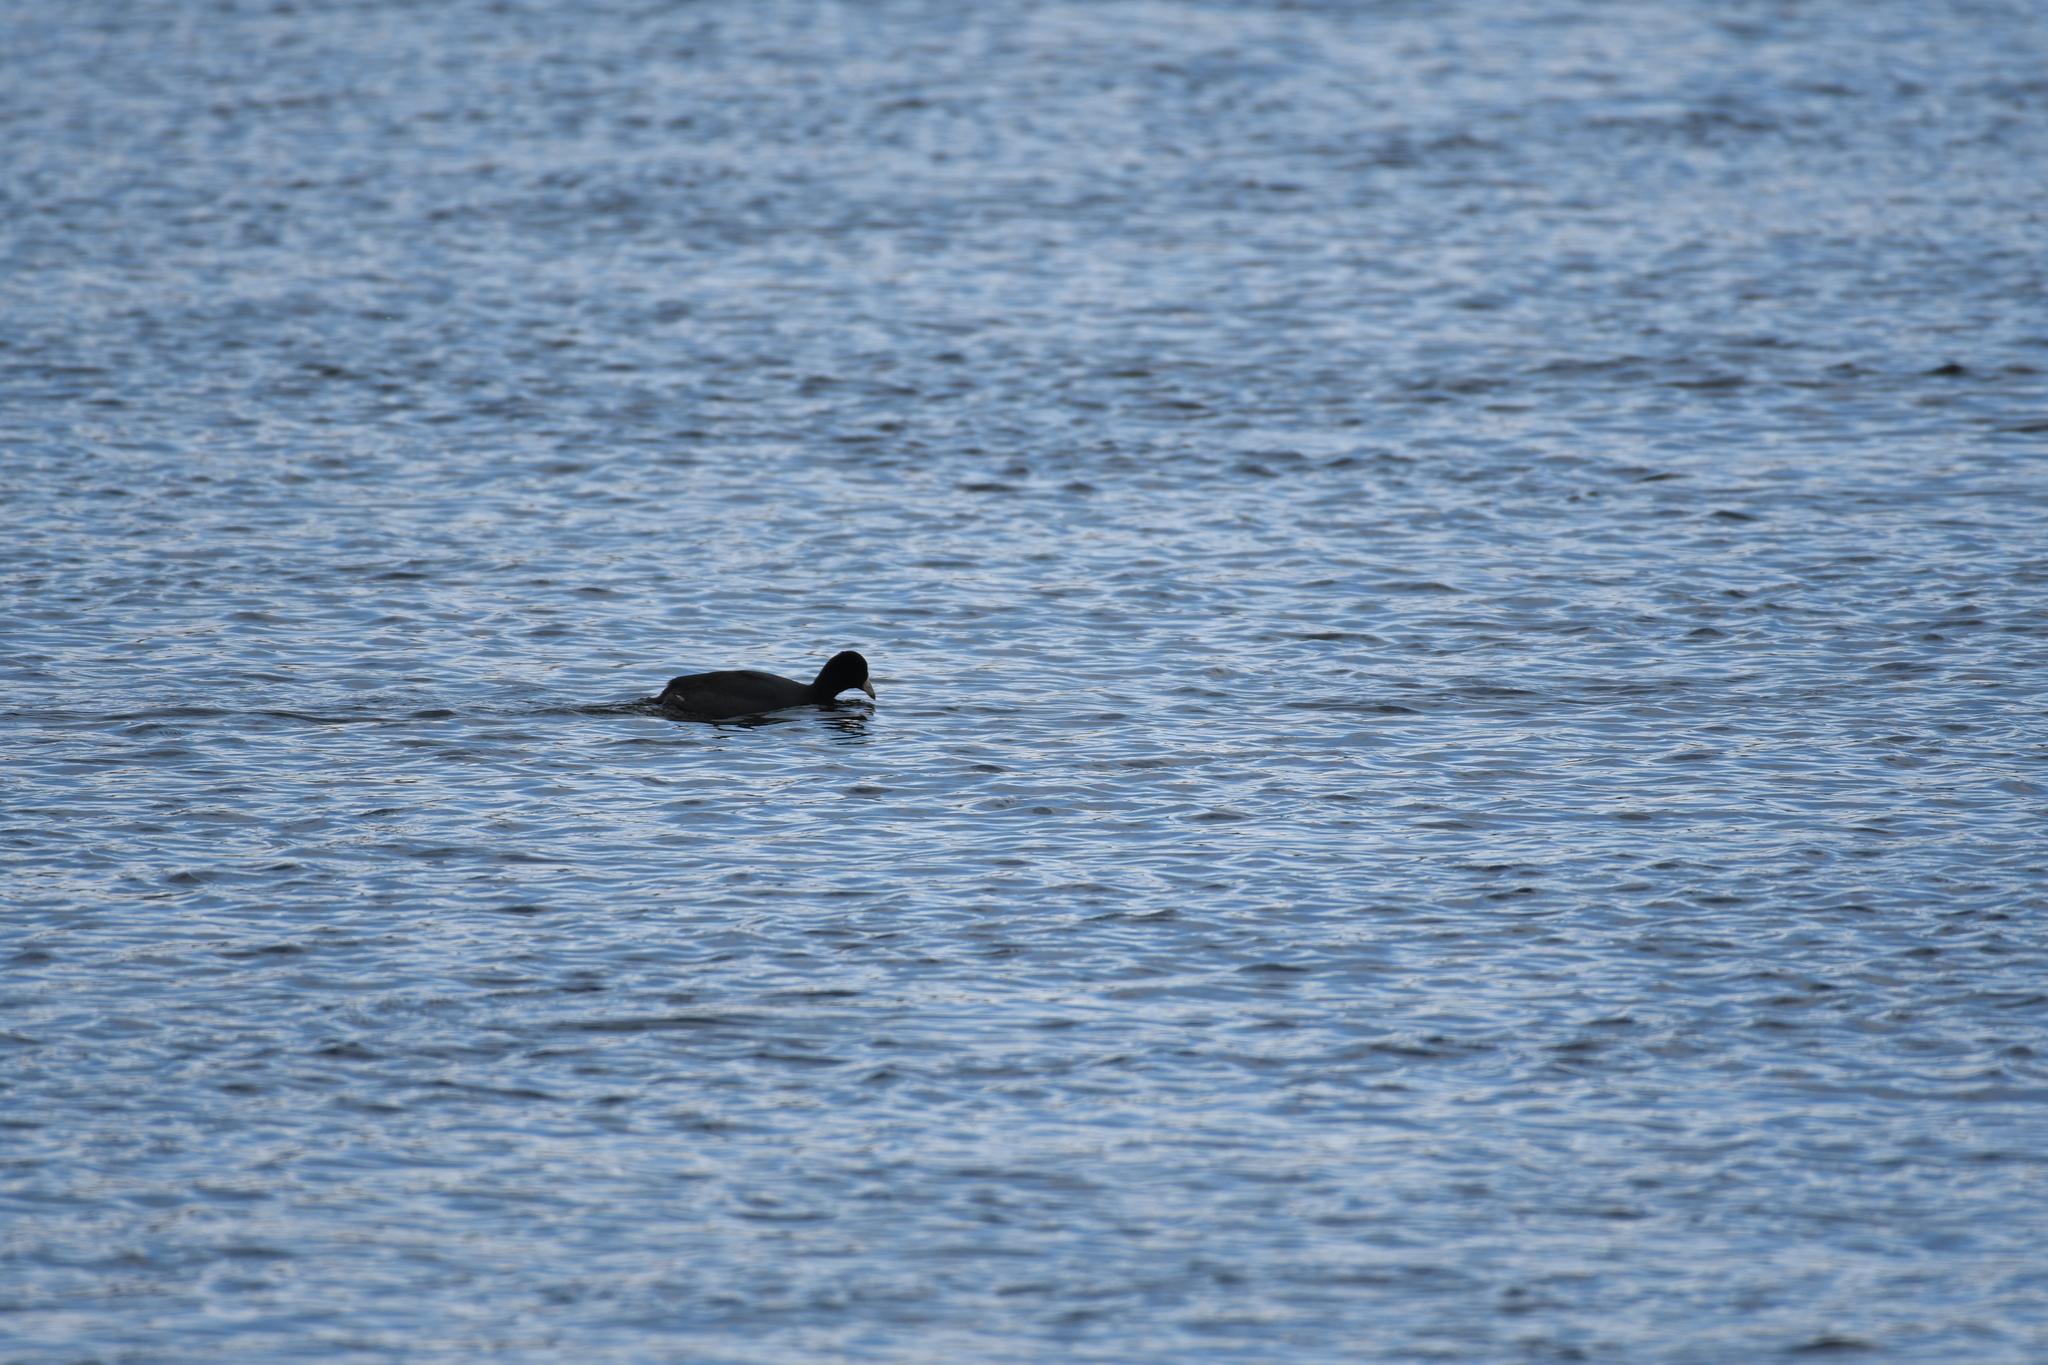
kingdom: Animalia
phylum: Chordata
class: Aves
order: Gruiformes
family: Rallidae
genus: Fulica
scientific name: Fulica americana
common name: American coot
